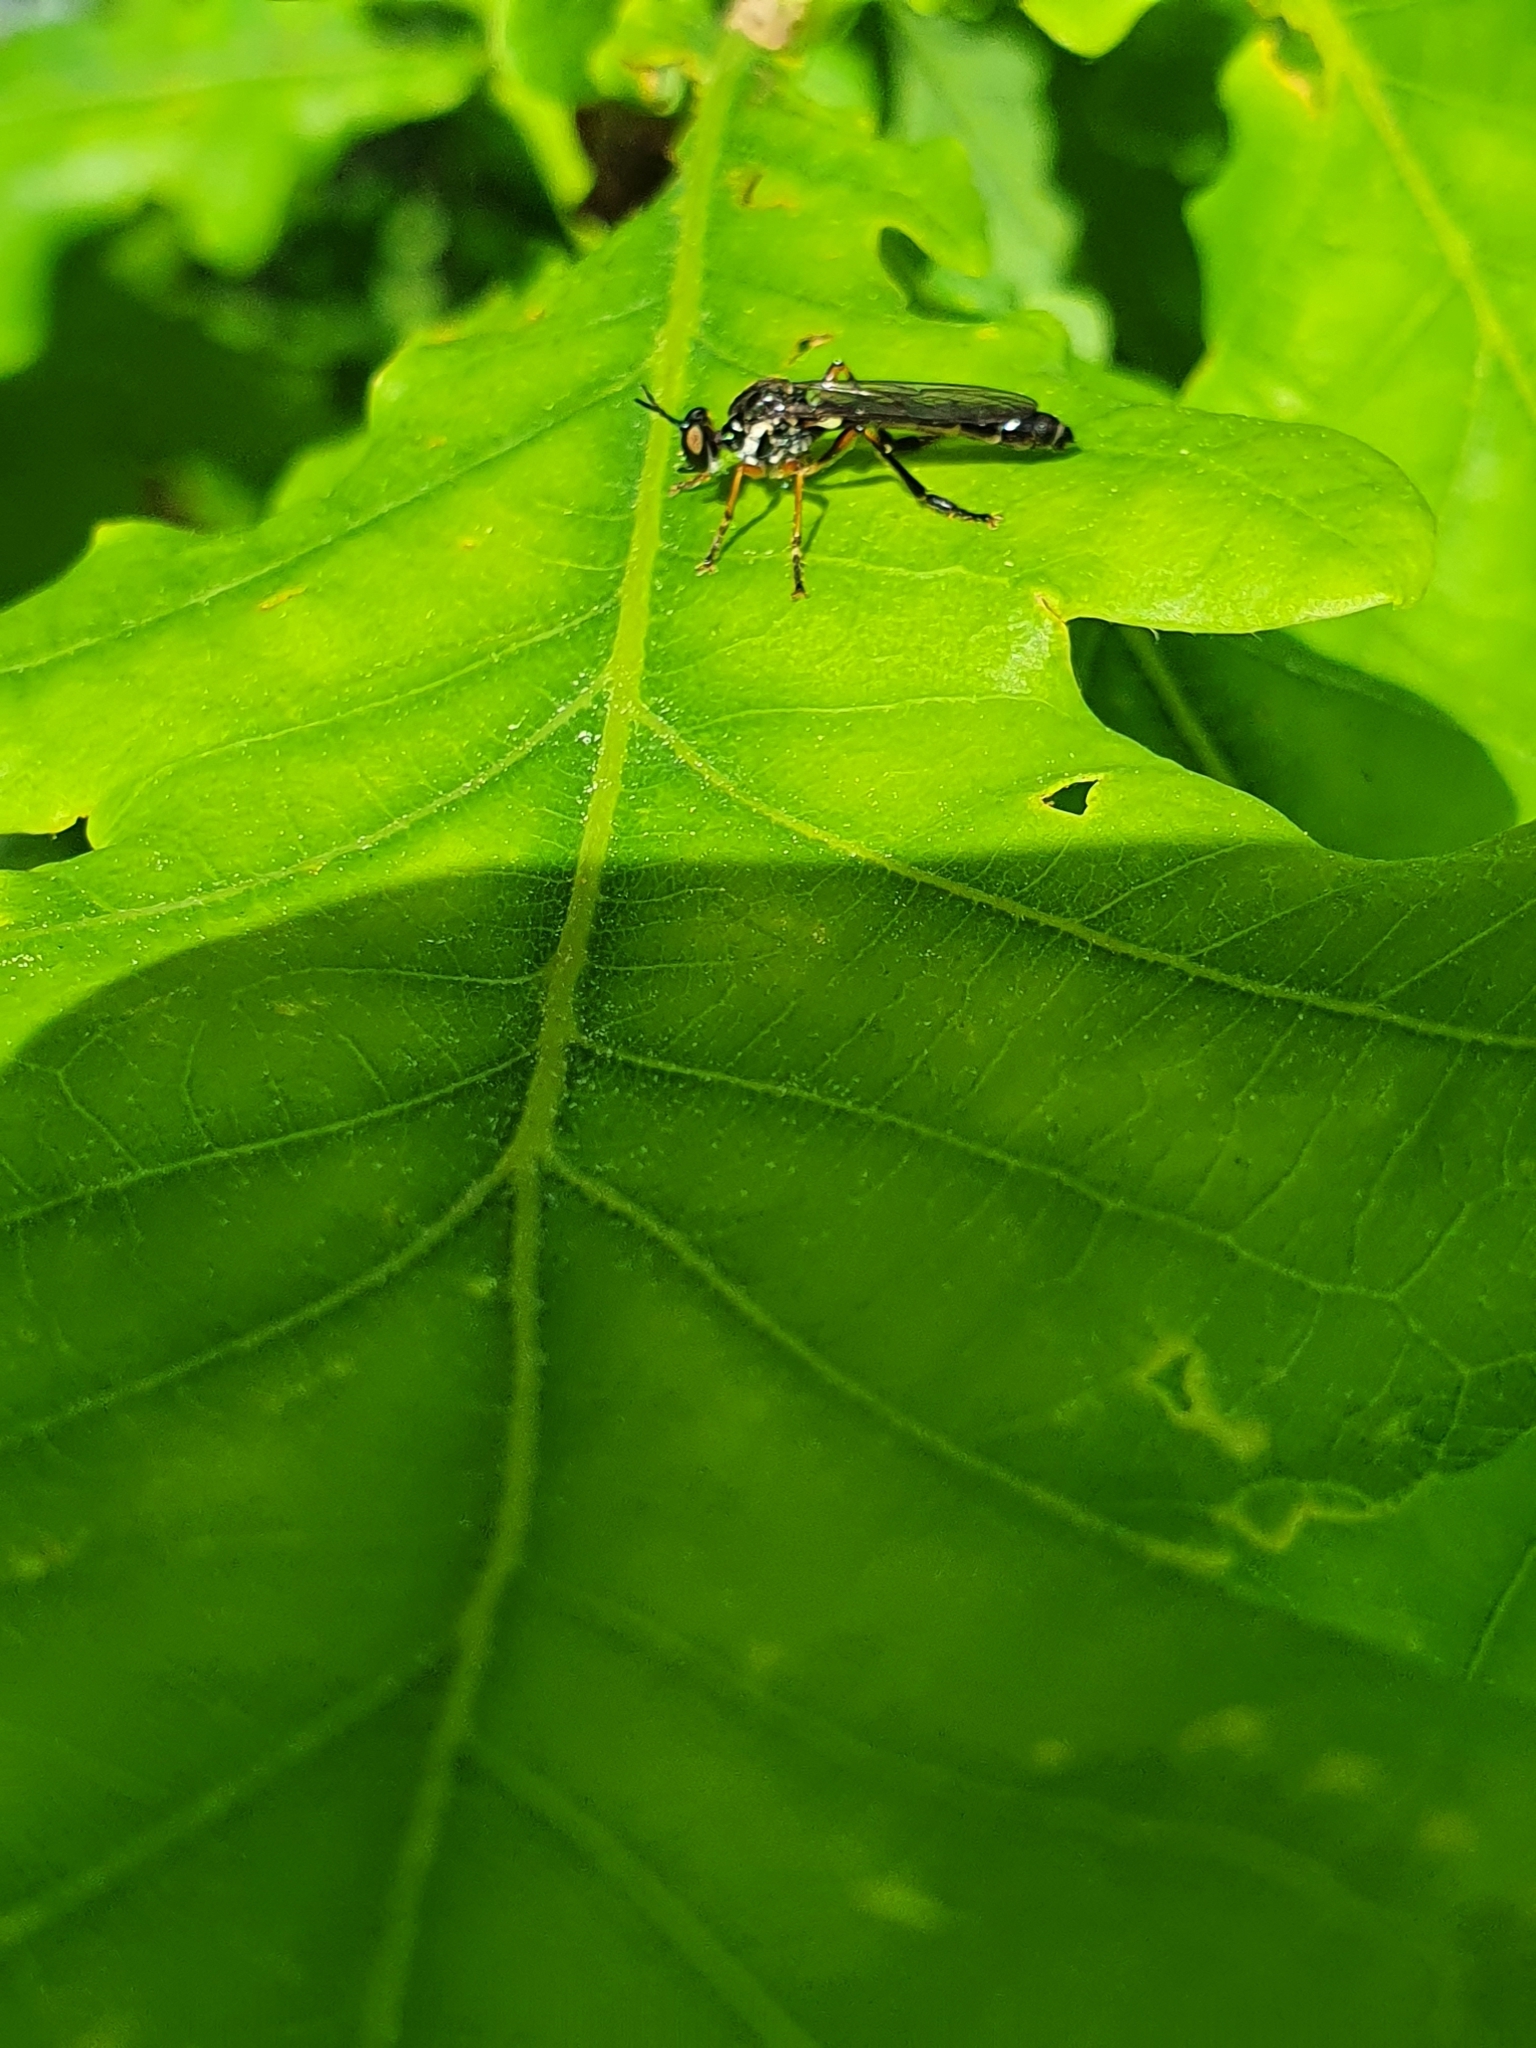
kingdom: Animalia
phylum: Arthropoda
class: Insecta
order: Diptera
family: Asilidae
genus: Dioctria
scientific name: Dioctria hyalipennis
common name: Stripe-legged robberfly
